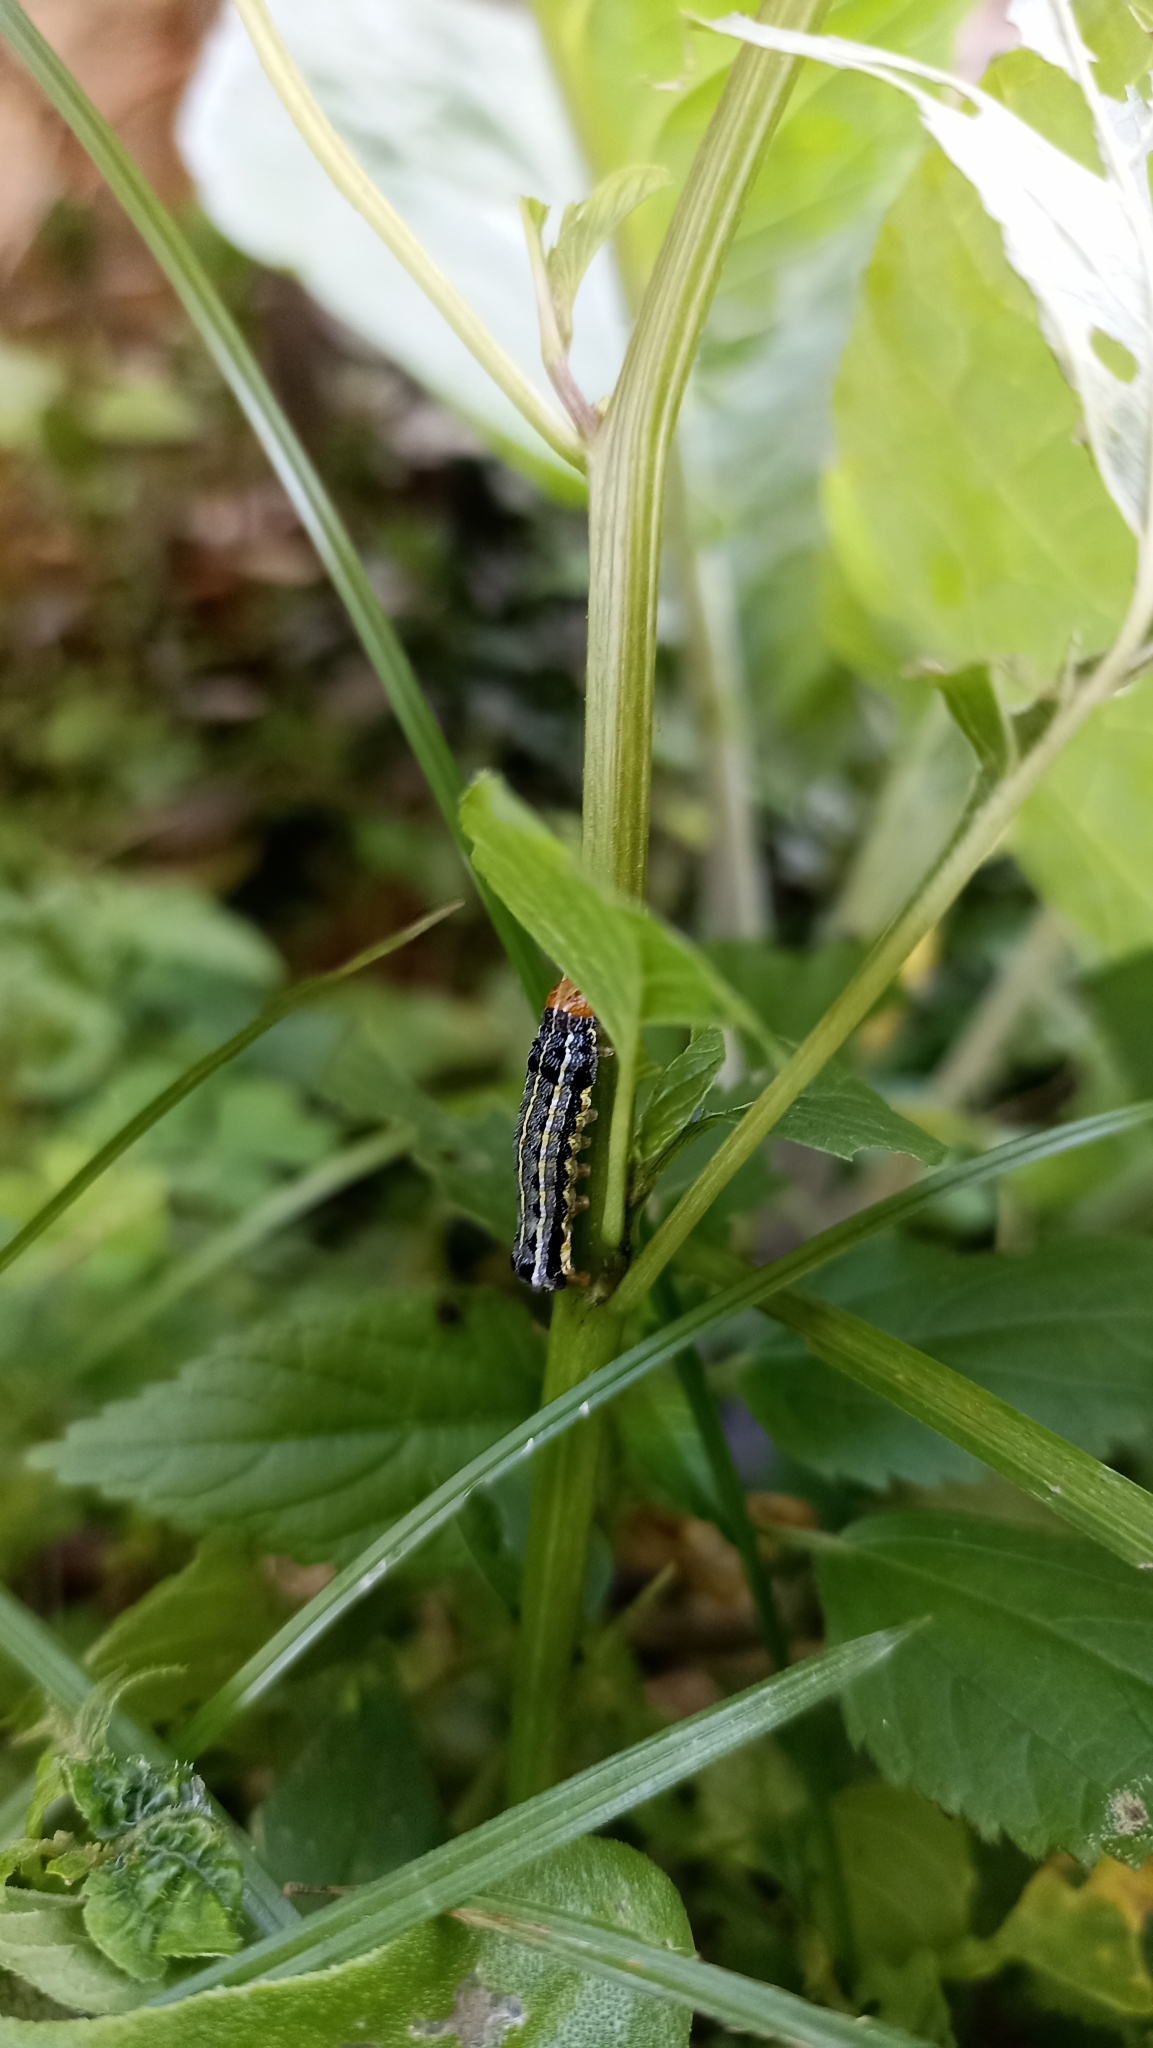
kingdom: Animalia
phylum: Arthropoda
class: Insecta
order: Lepidoptera
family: Noctuidae
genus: Spodoptera
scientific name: Spodoptera eridania
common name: Southern army worm
